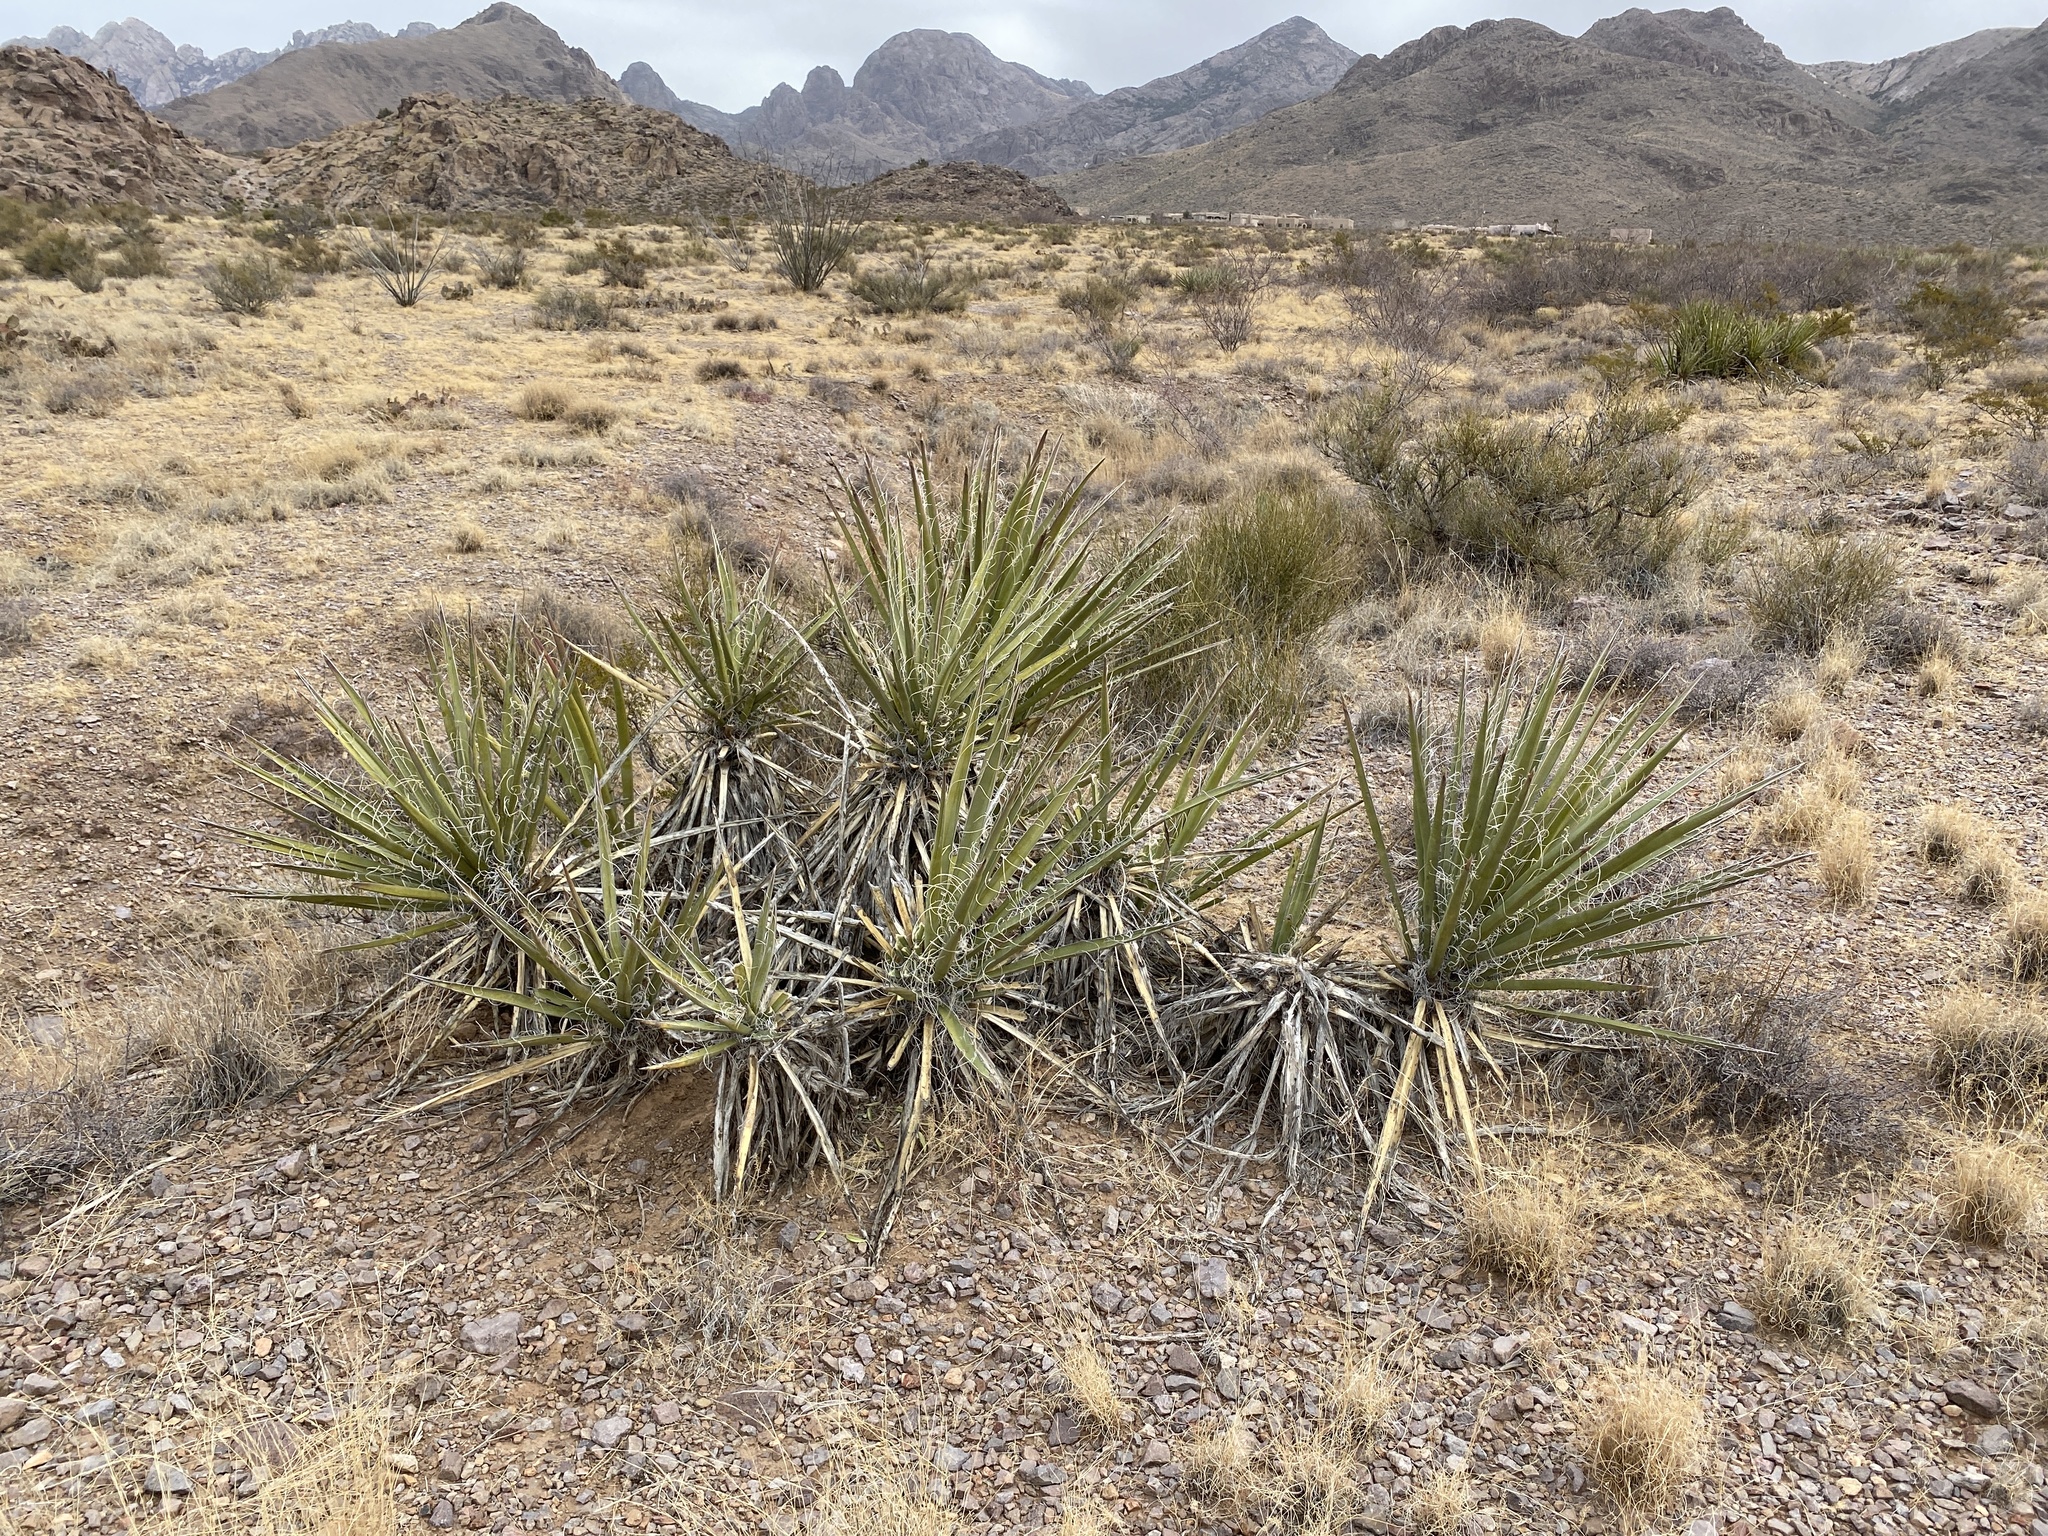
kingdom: Plantae
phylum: Tracheophyta
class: Liliopsida
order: Asparagales
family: Asparagaceae
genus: Yucca
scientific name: Yucca baccata
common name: Banana yucca
